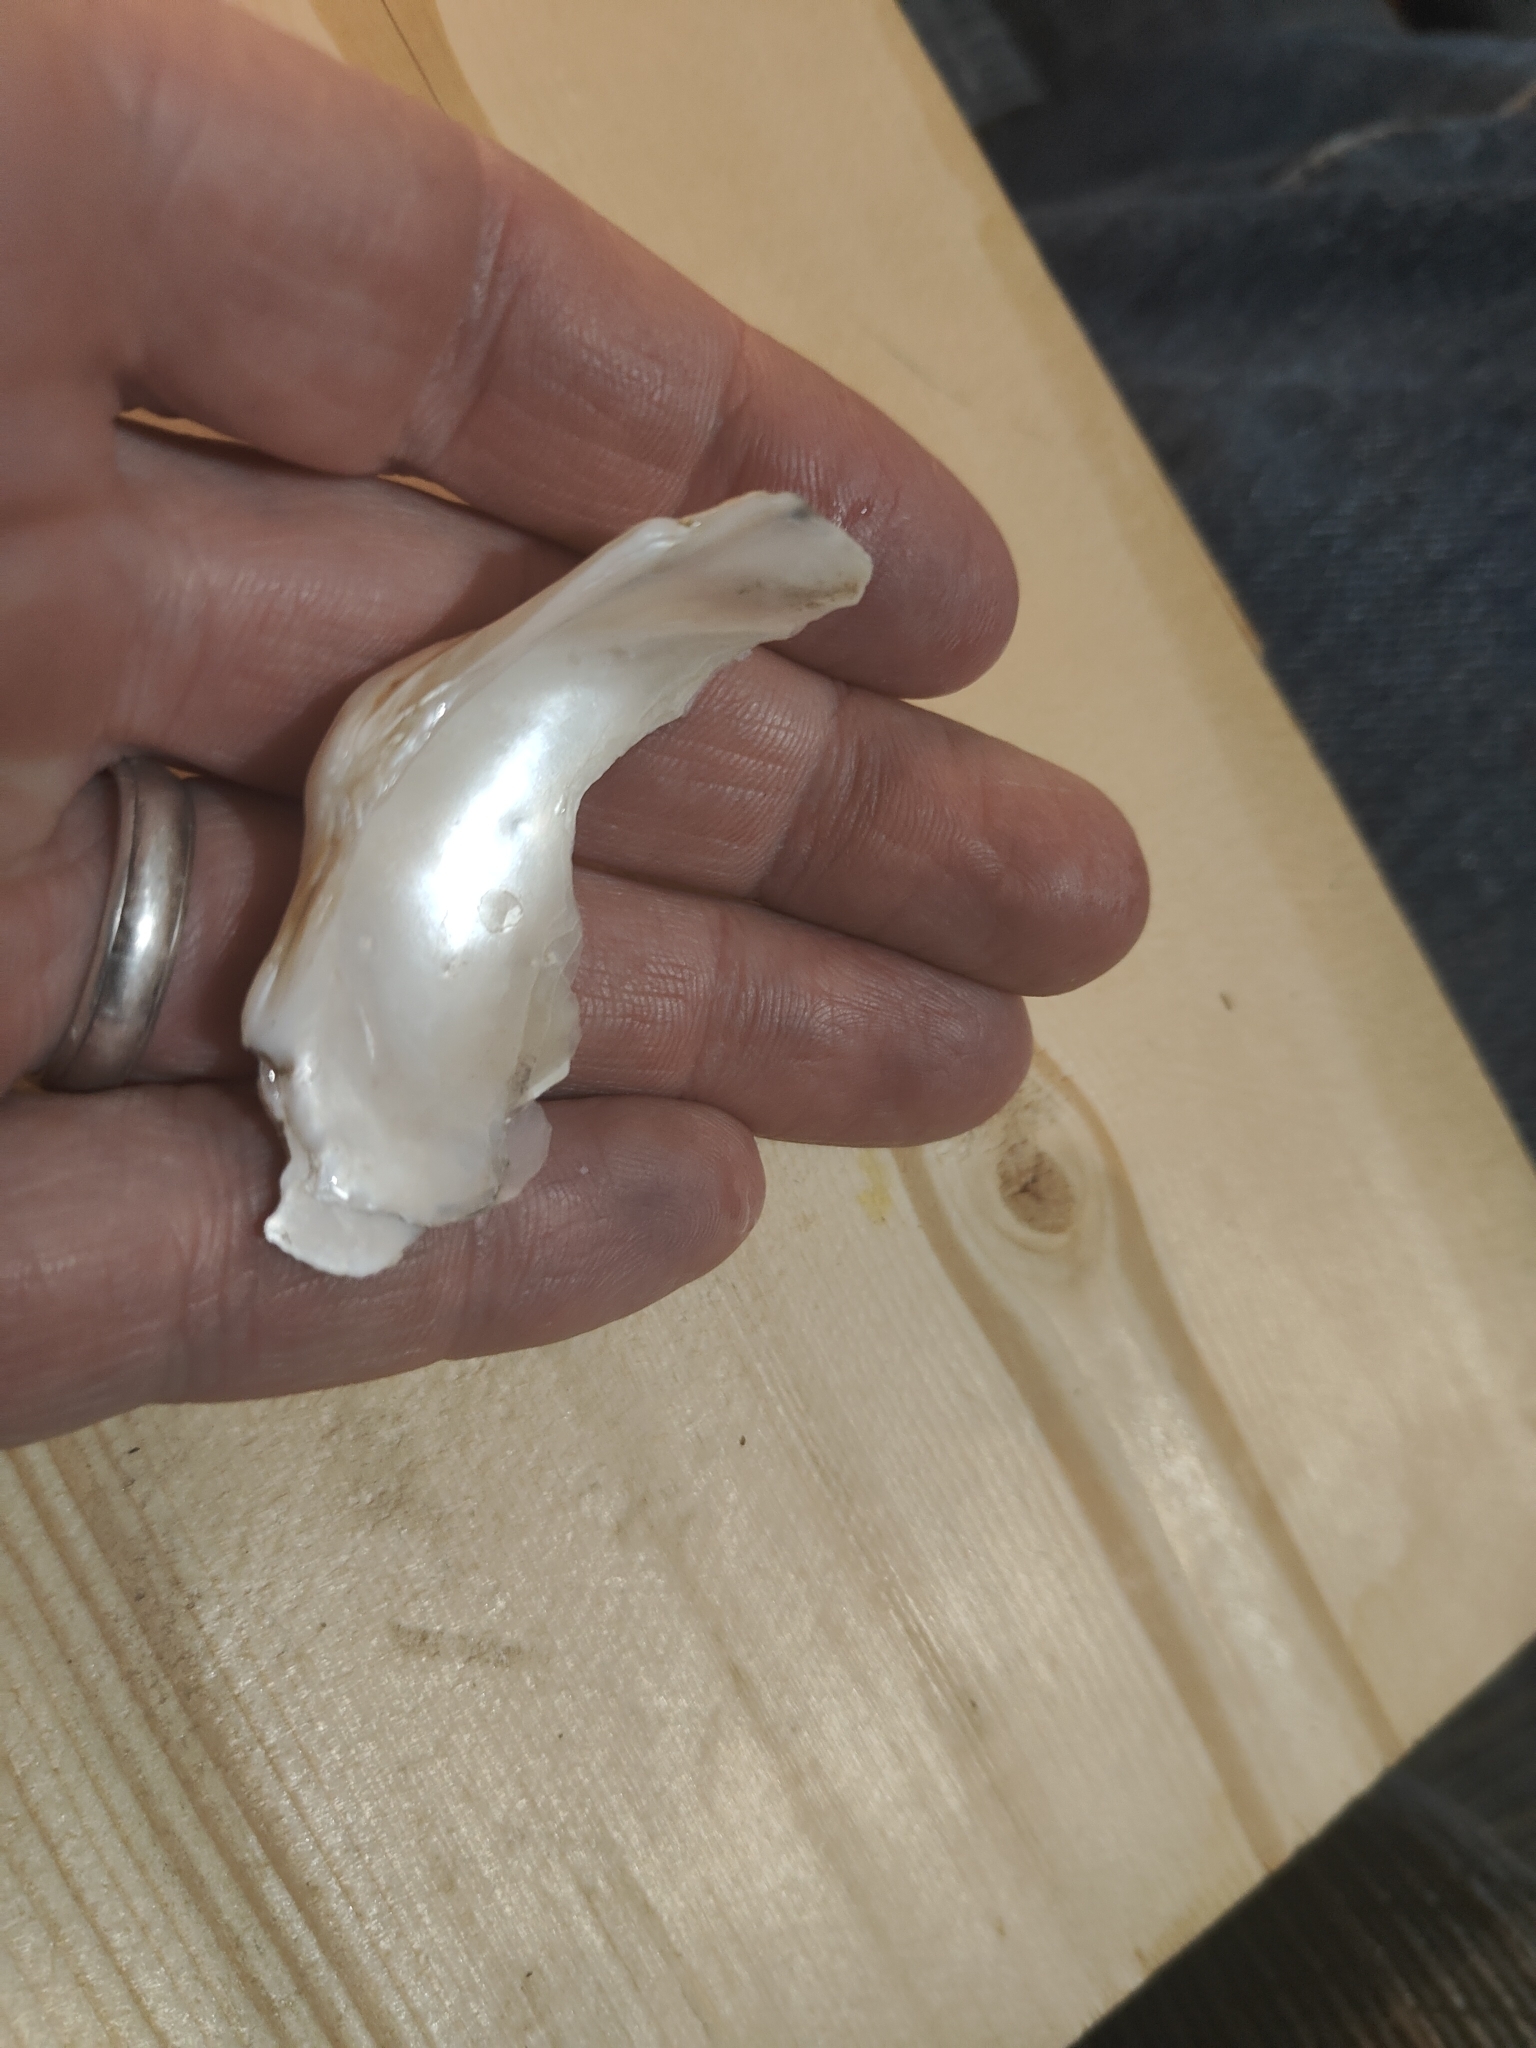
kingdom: Animalia
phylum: Mollusca
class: Bivalvia
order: Unionida
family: Unionidae
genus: Alasmidonta
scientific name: Alasmidonta marginata
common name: Elktoe
